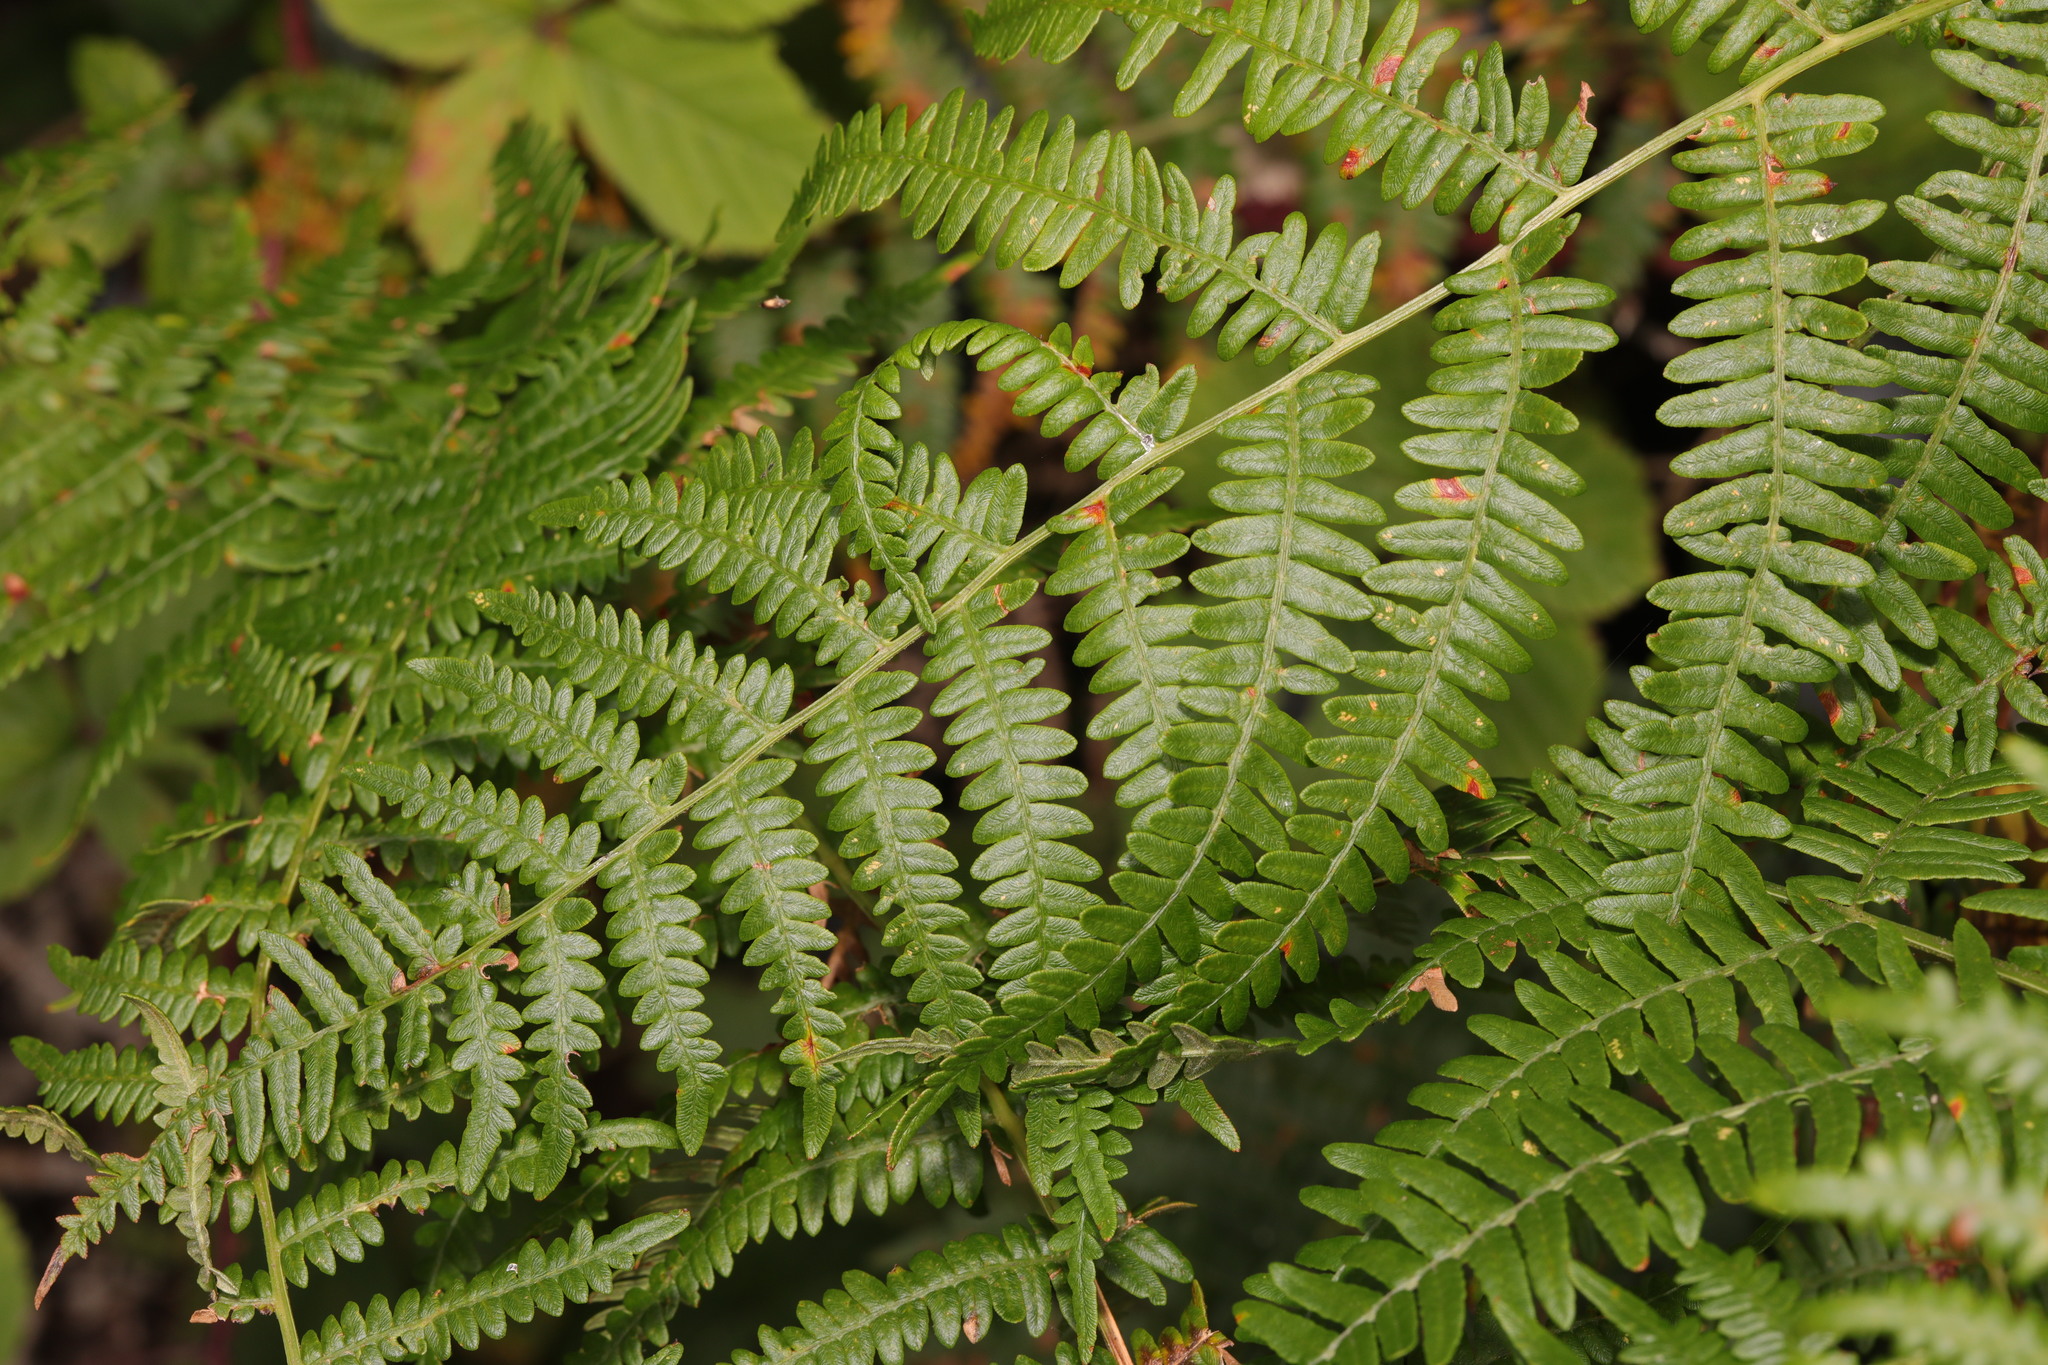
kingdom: Plantae
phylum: Tracheophyta
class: Polypodiopsida
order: Polypodiales
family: Dennstaedtiaceae
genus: Pteridium
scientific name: Pteridium aquilinum
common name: Bracken
